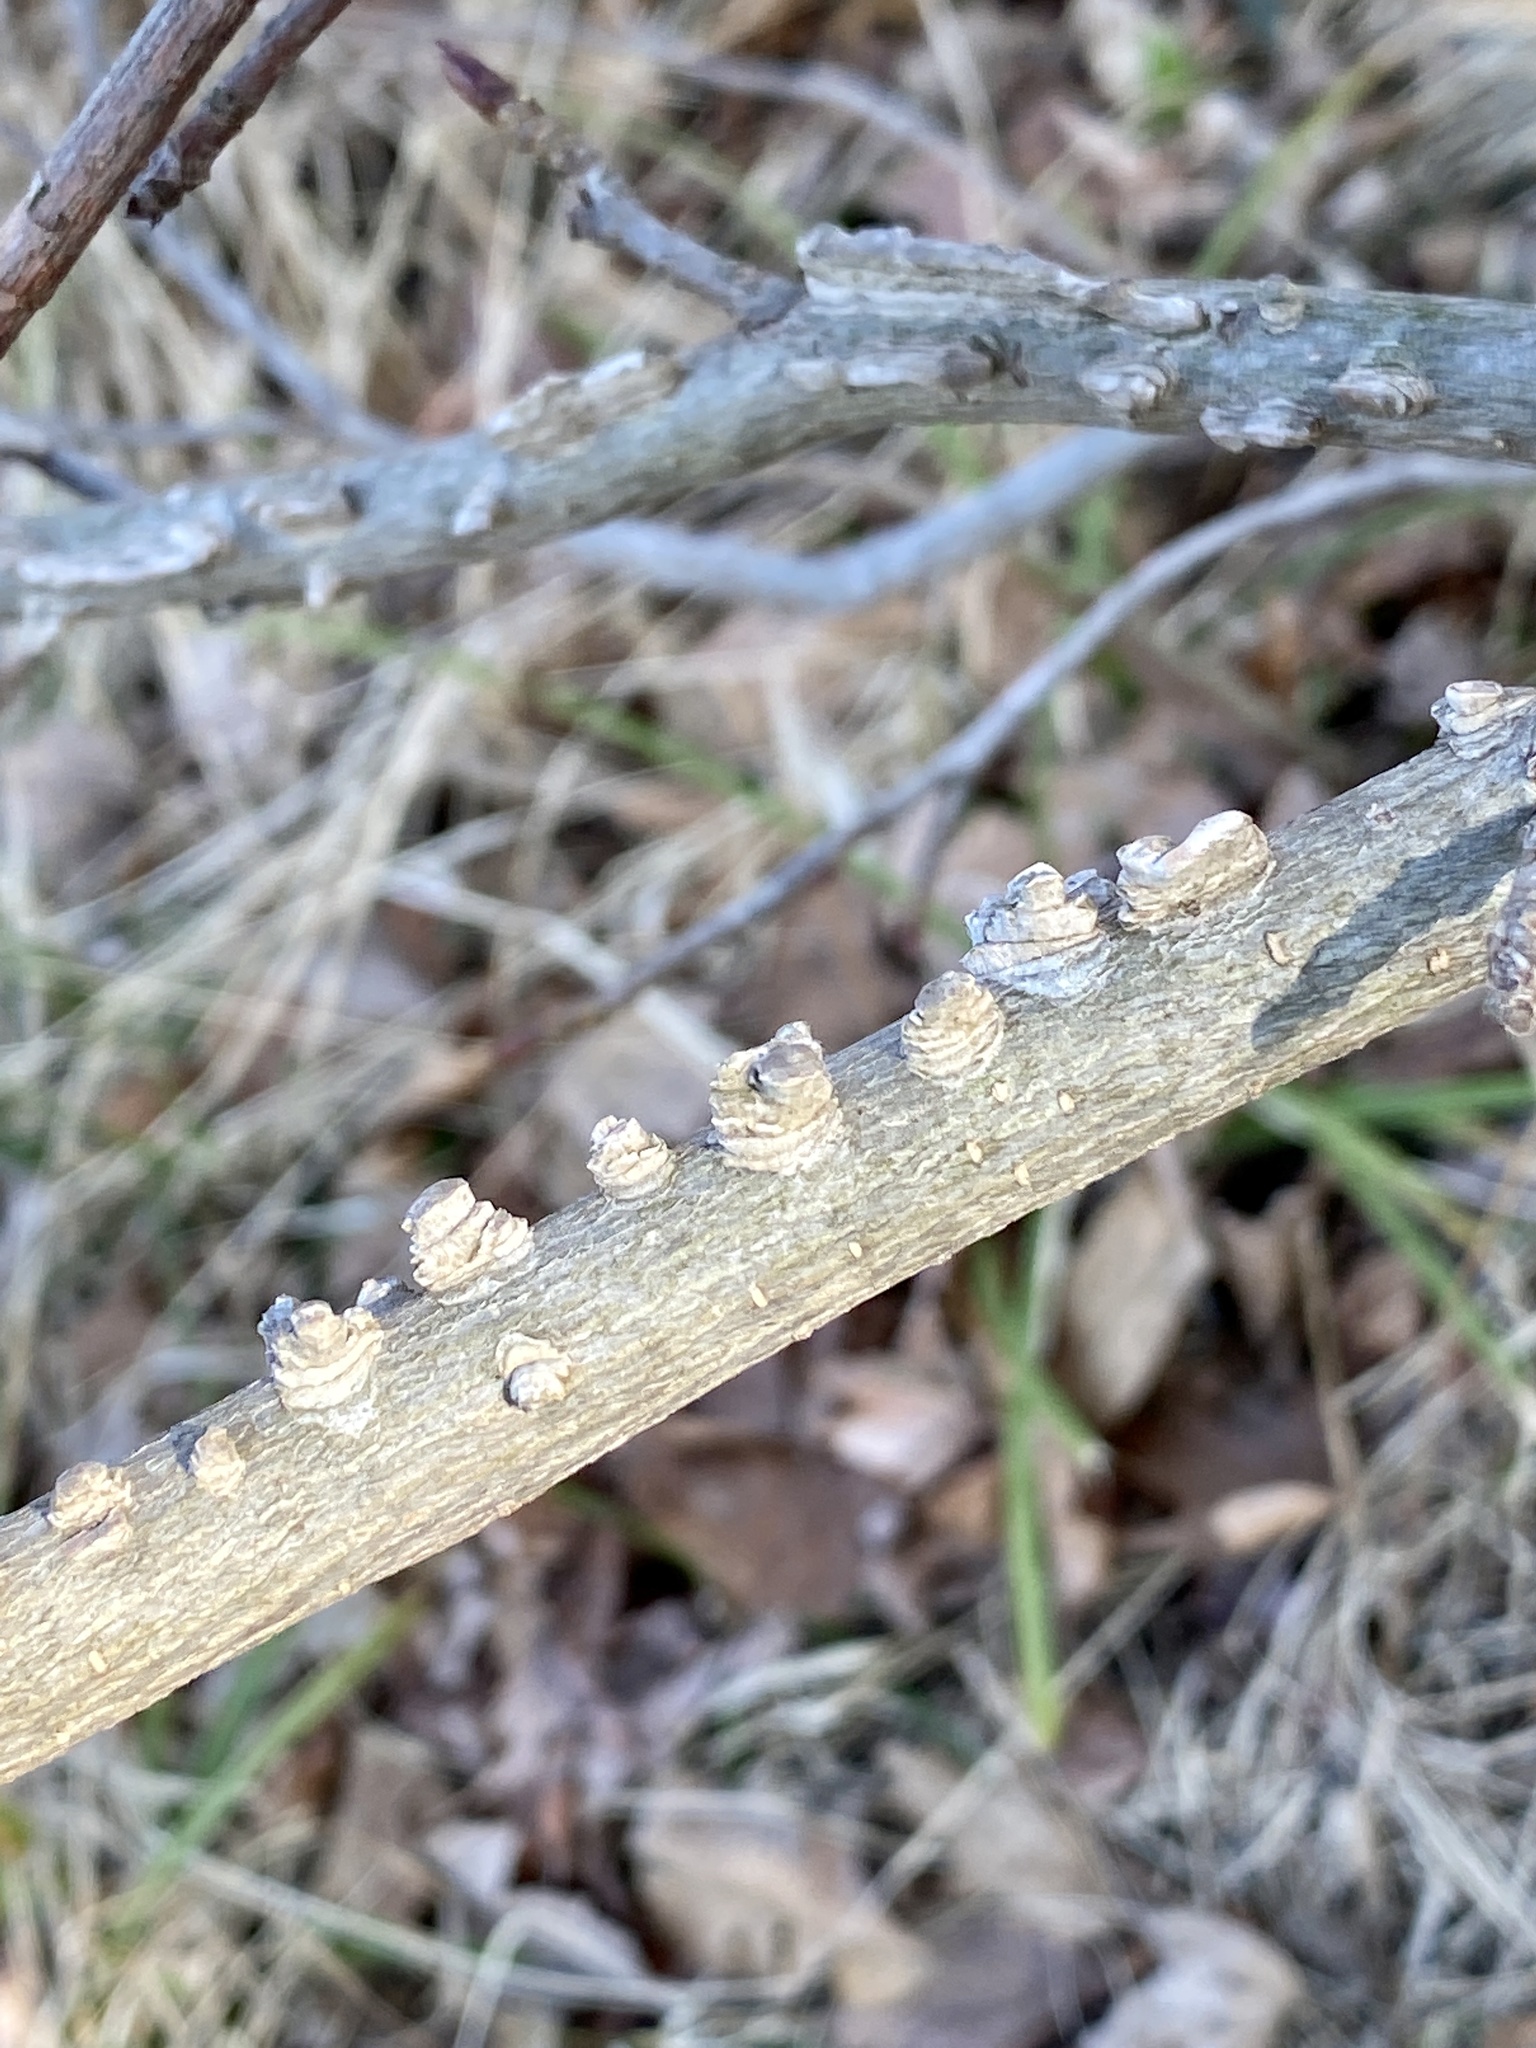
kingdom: Plantae
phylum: Tracheophyta
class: Magnoliopsida
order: Saxifragales
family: Altingiaceae
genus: Liquidambar
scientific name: Liquidambar styraciflua
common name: Sweet gum
